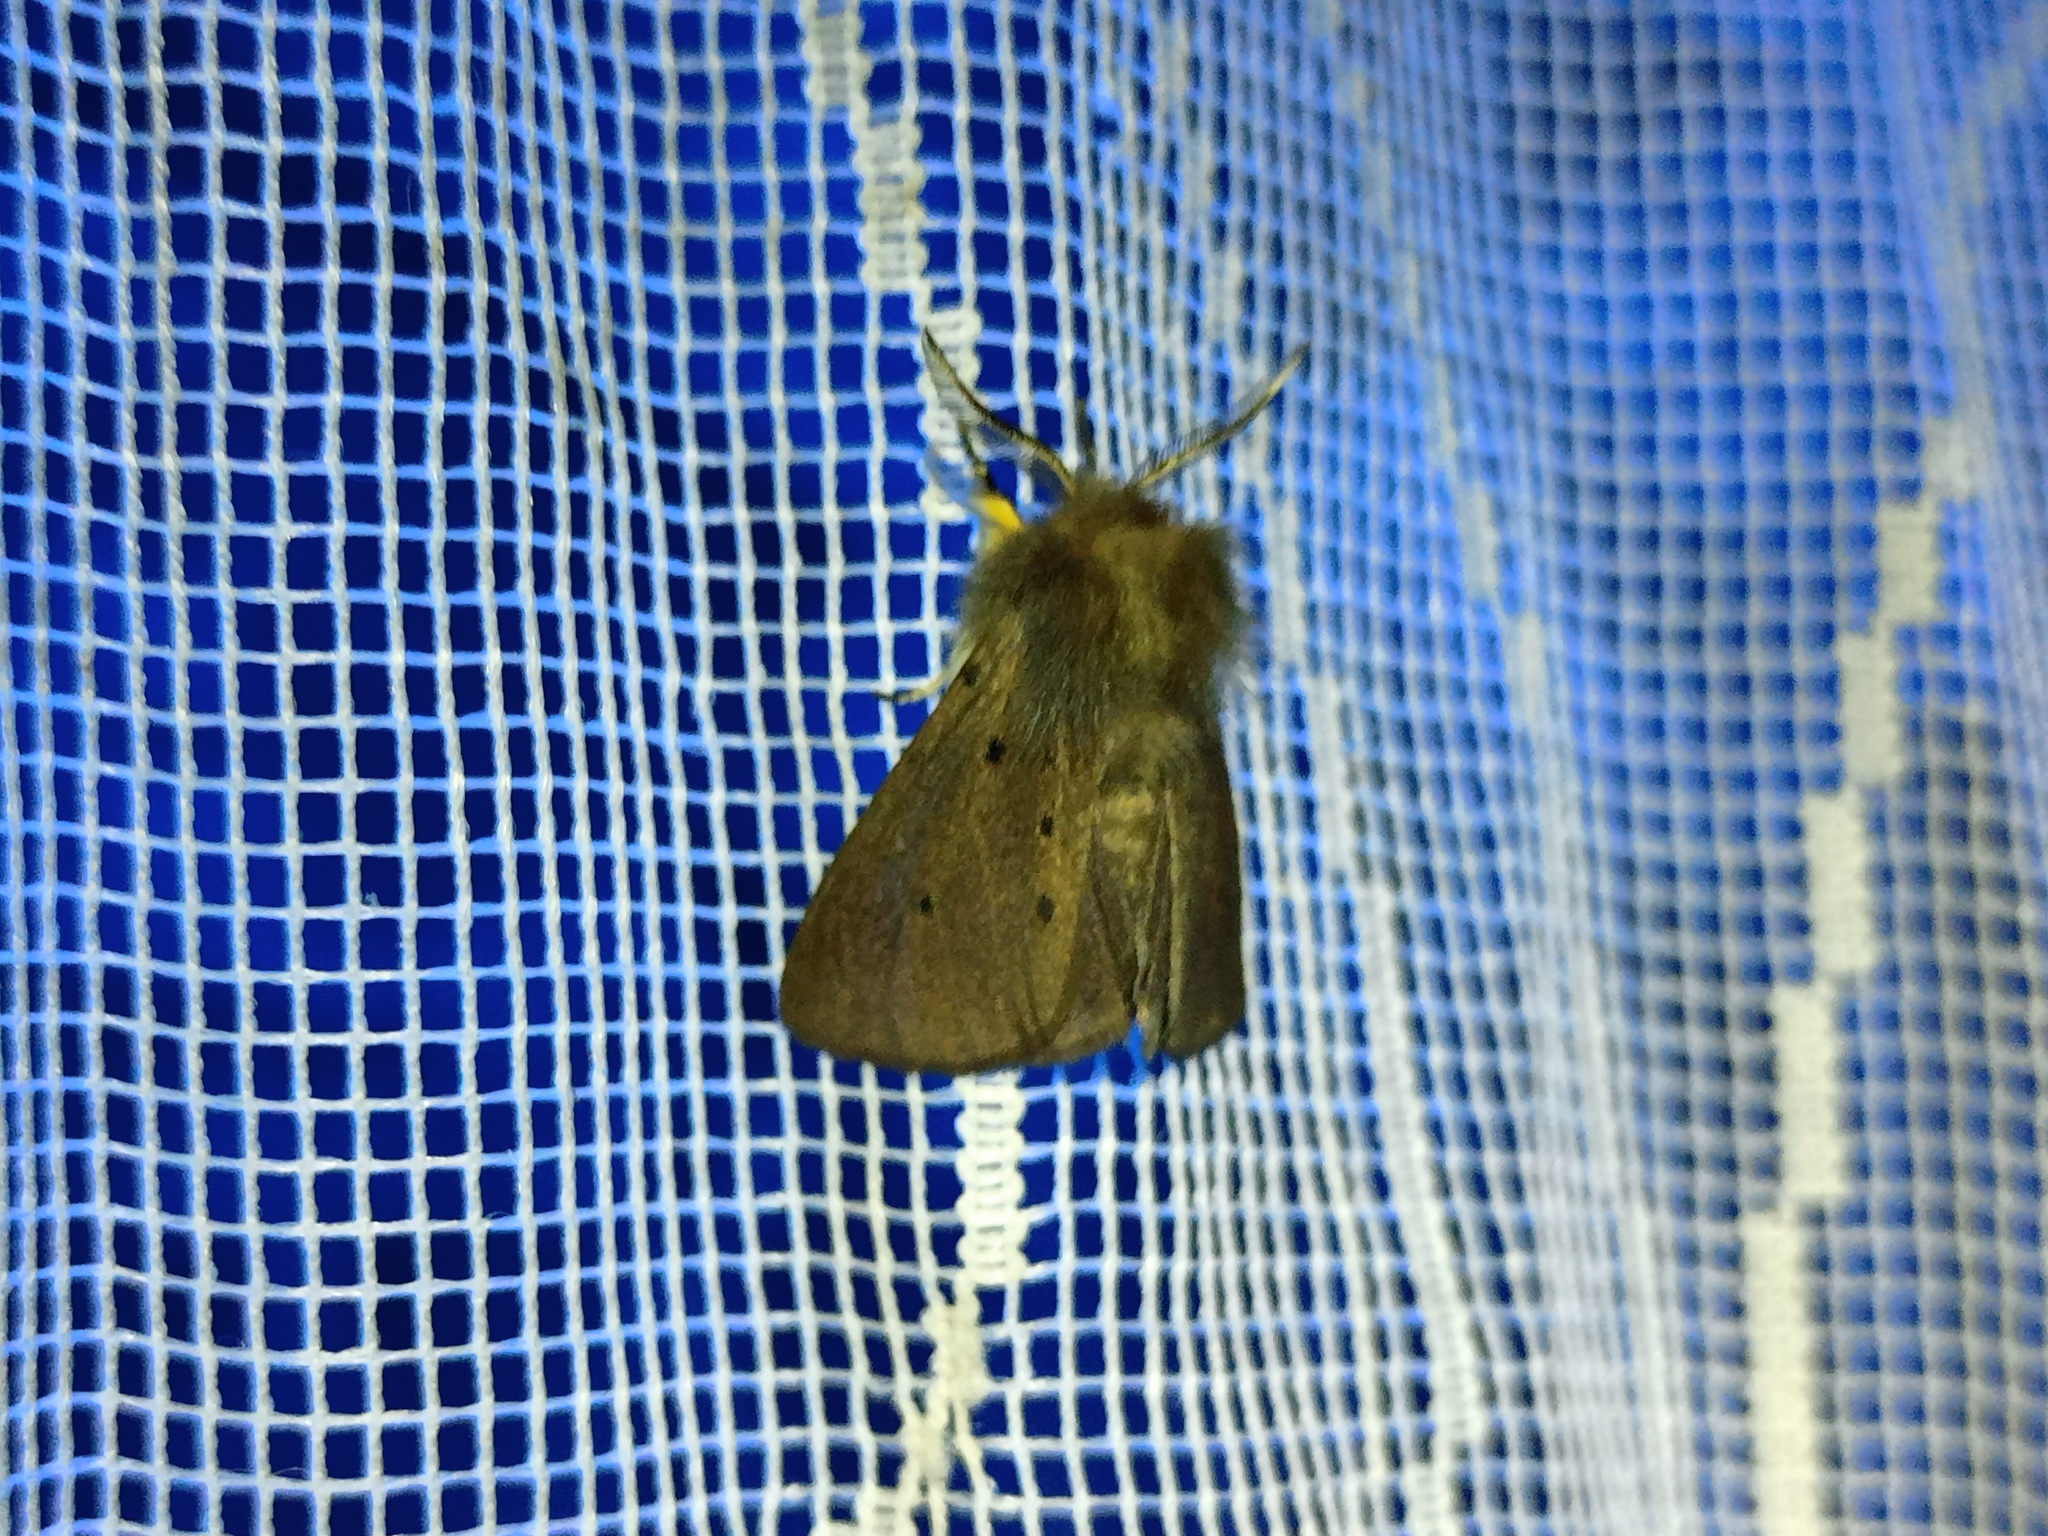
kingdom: Animalia
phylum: Arthropoda
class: Insecta
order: Lepidoptera
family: Erebidae
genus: Diaphora
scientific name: Diaphora mendica
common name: Muslin moth
